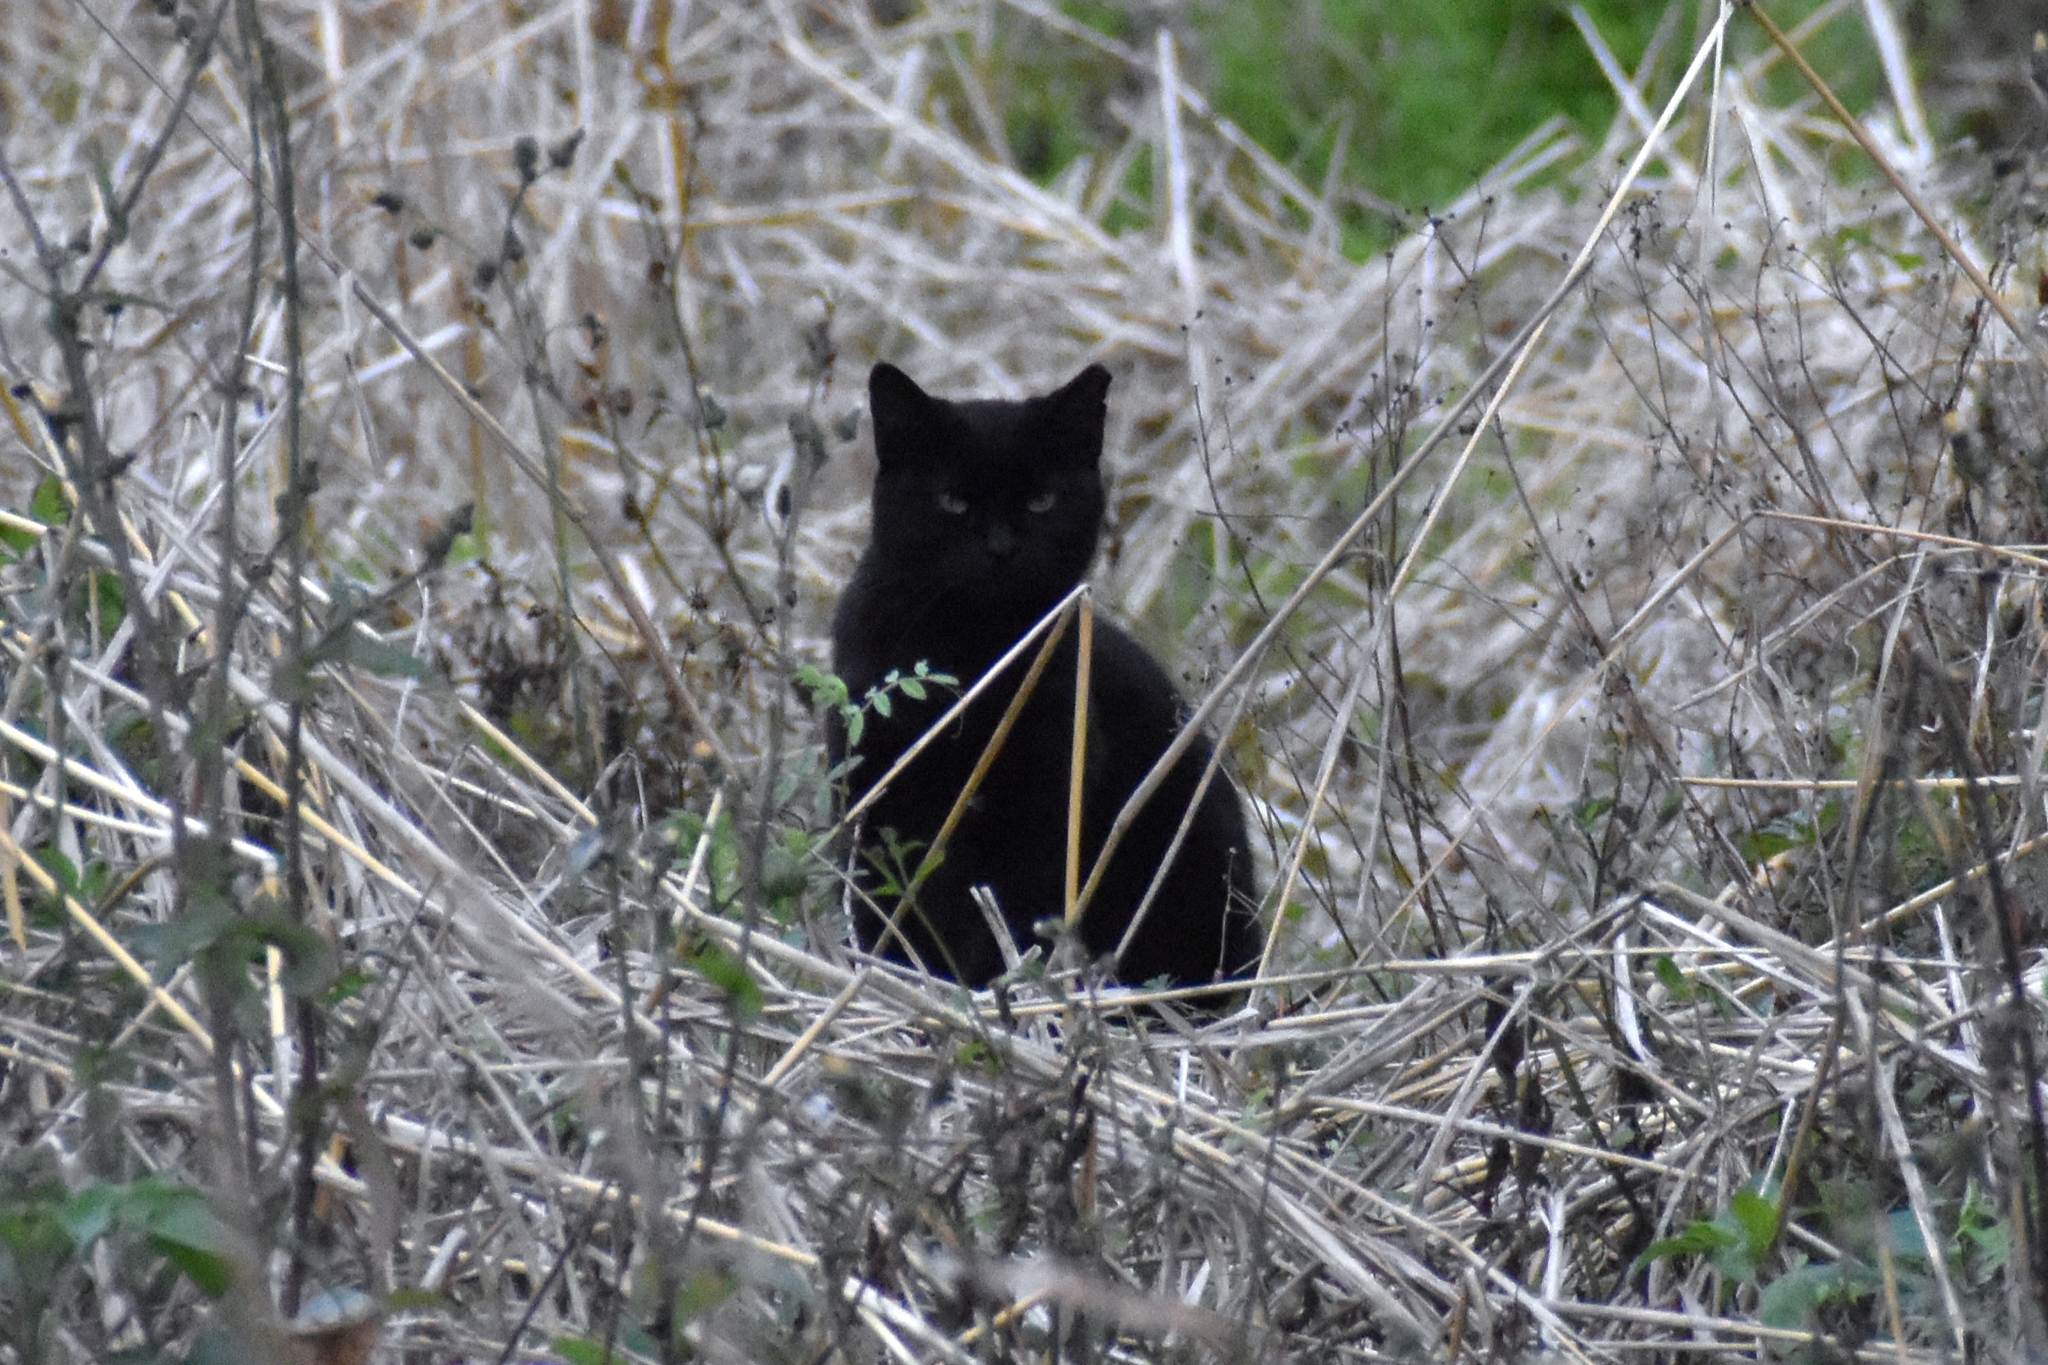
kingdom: Animalia
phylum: Chordata
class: Mammalia
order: Carnivora
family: Felidae
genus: Felis
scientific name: Felis catus
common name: Domestic cat
